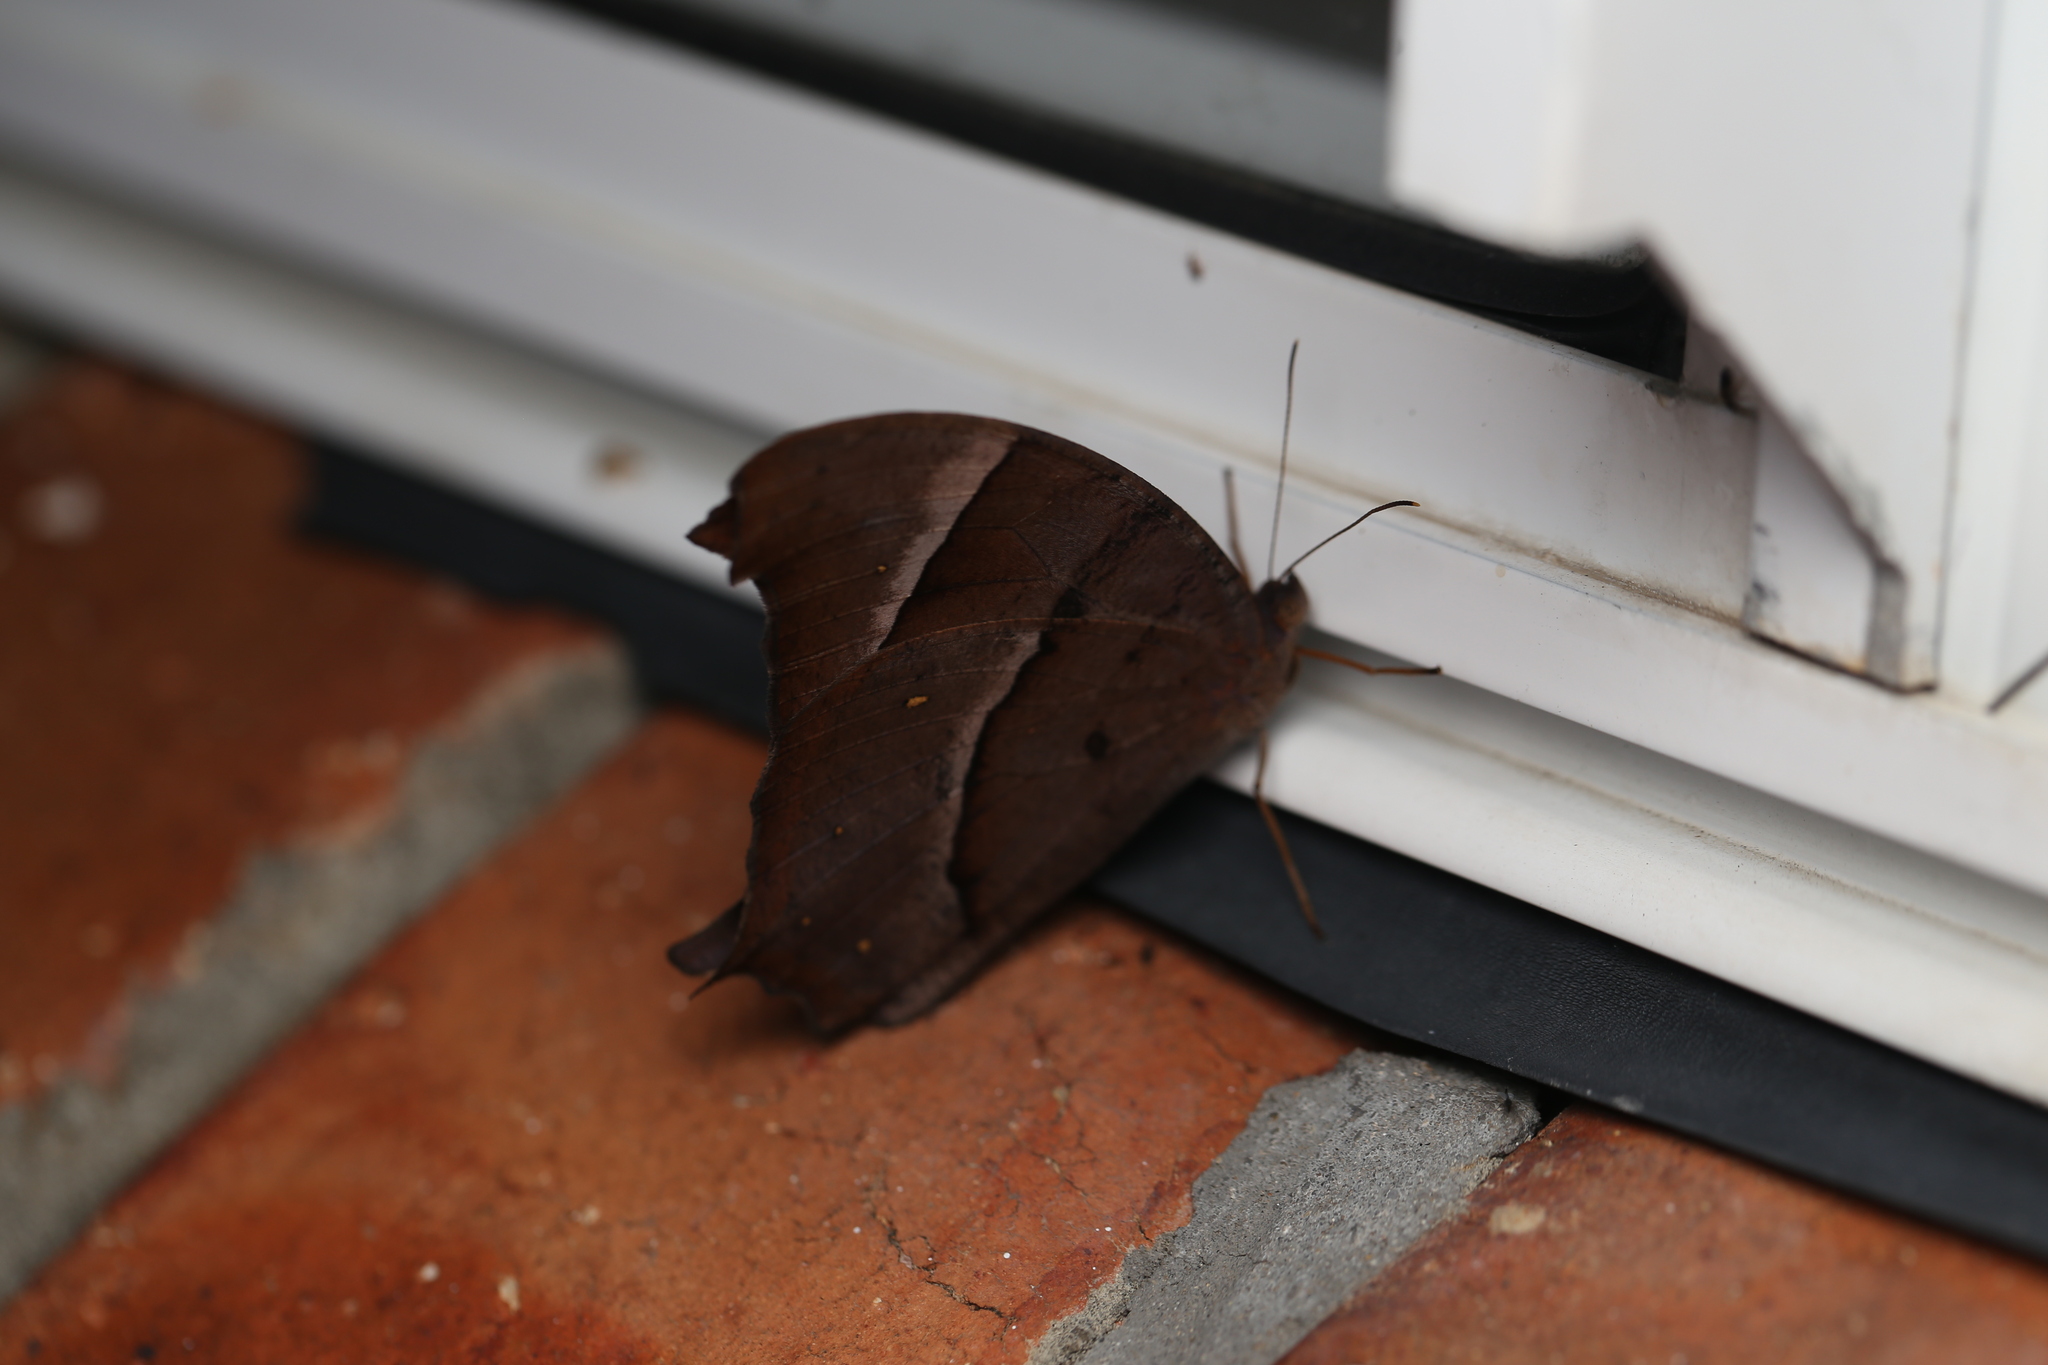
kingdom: Animalia
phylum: Arthropoda
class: Insecta
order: Lepidoptera
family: Nymphalidae
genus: Melanitis
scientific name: Melanitis leda
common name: Twilight brown
